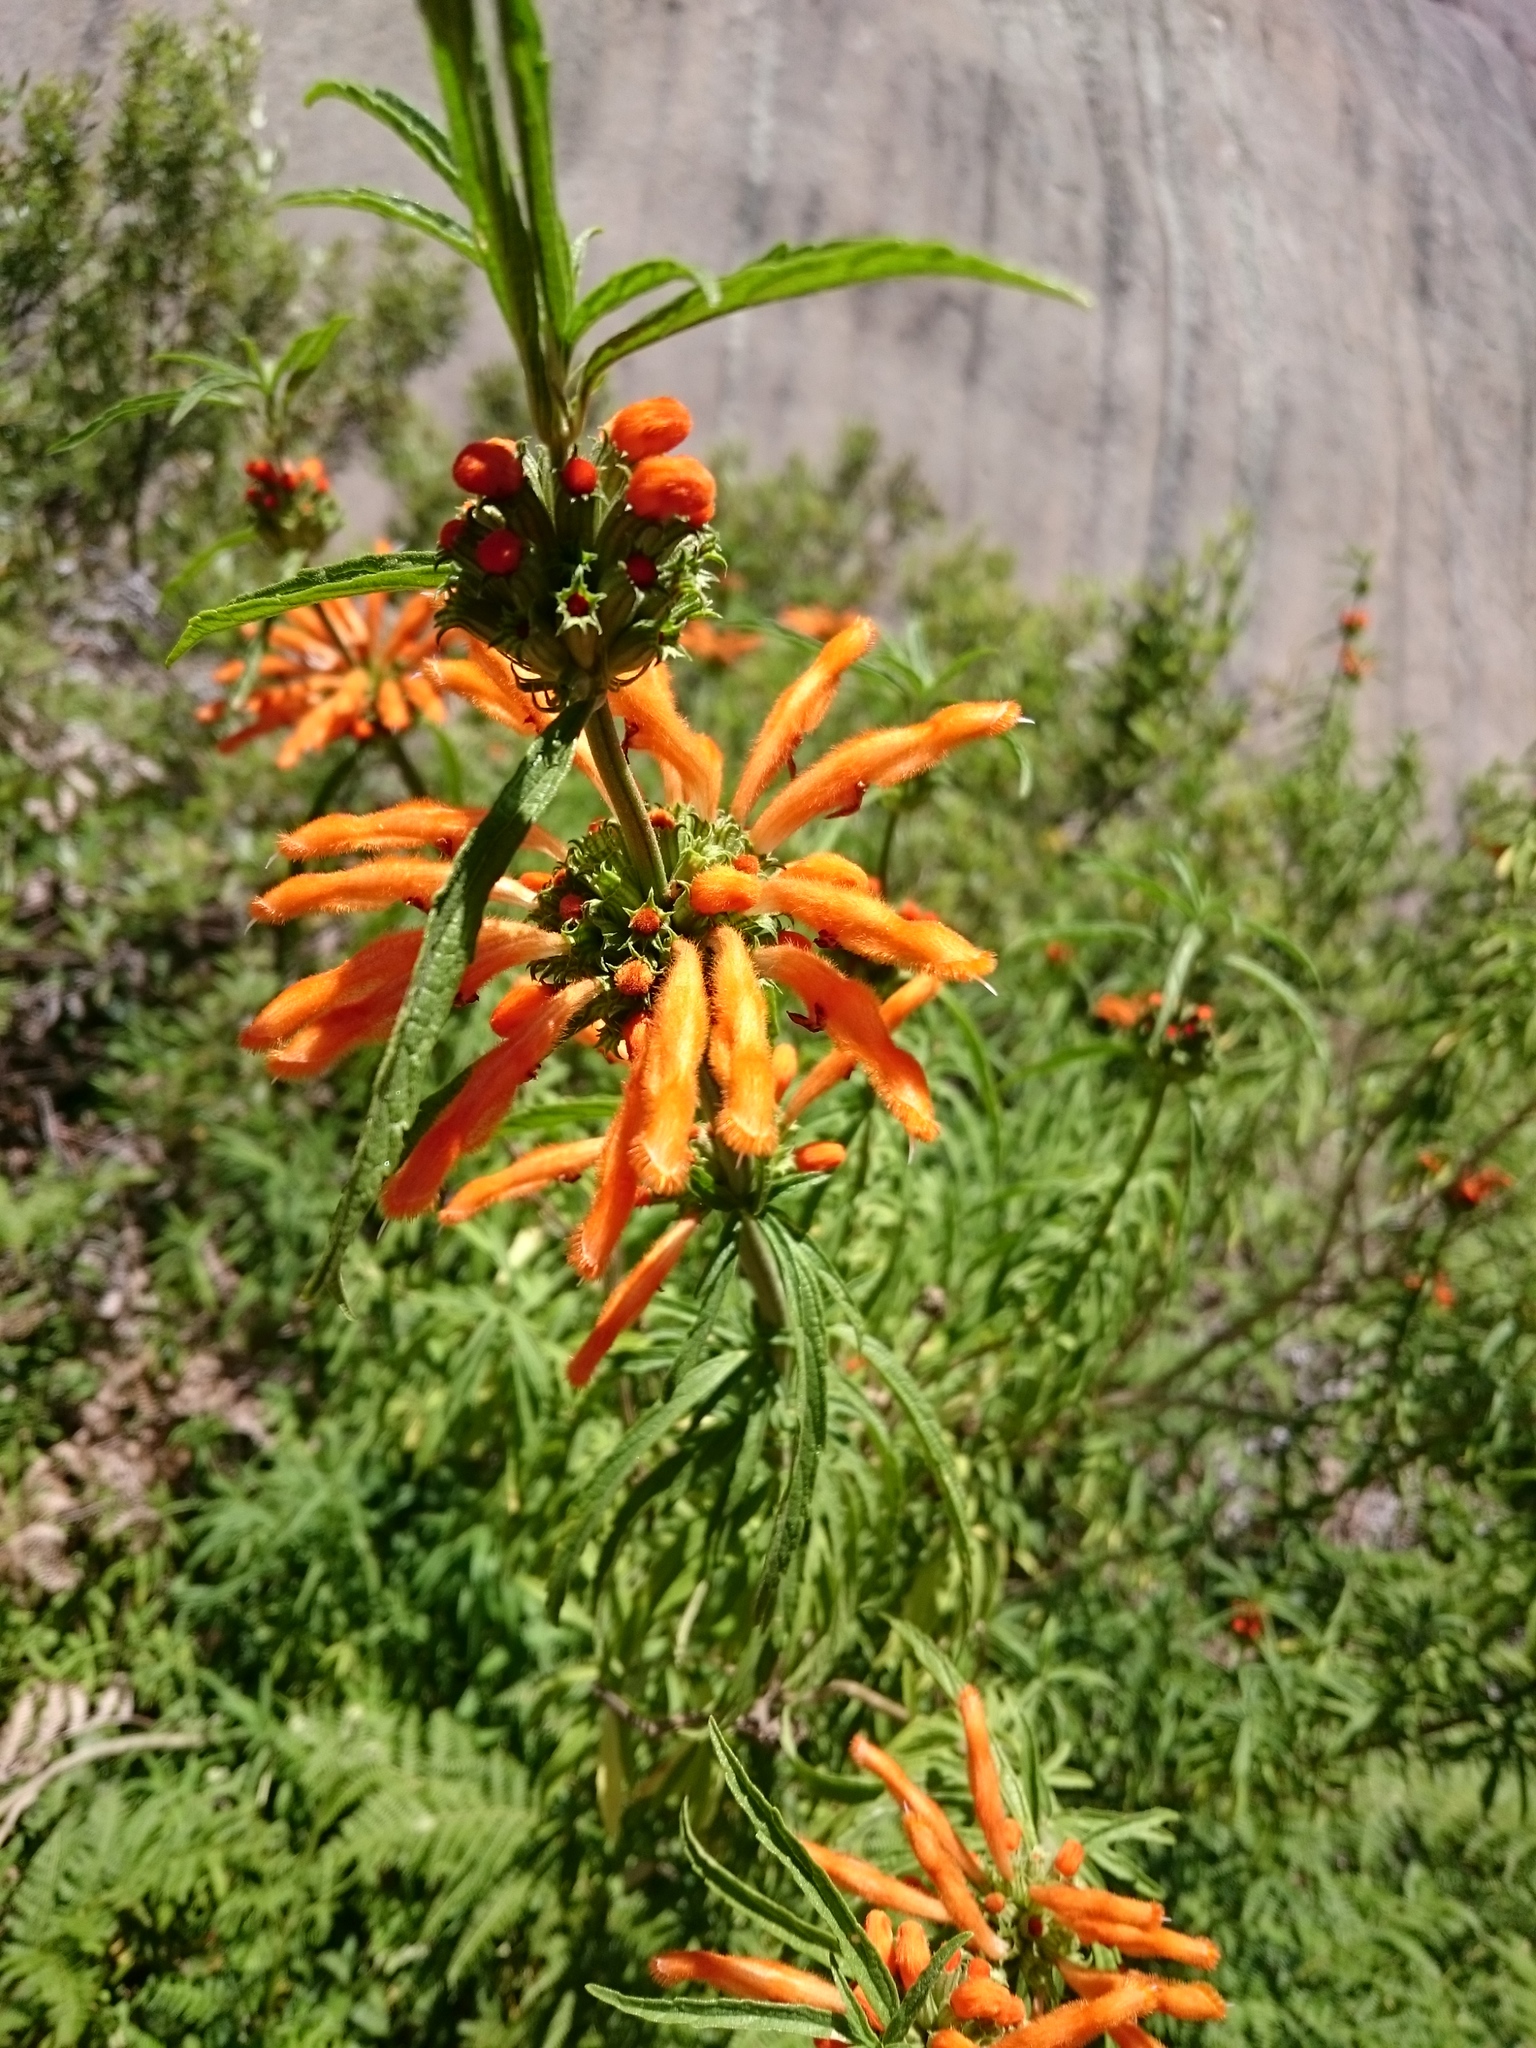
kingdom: Plantae
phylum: Tracheophyta
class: Magnoliopsida
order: Lamiales
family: Lamiaceae
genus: Leonotis
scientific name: Leonotis leonurus
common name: Lion's ear
